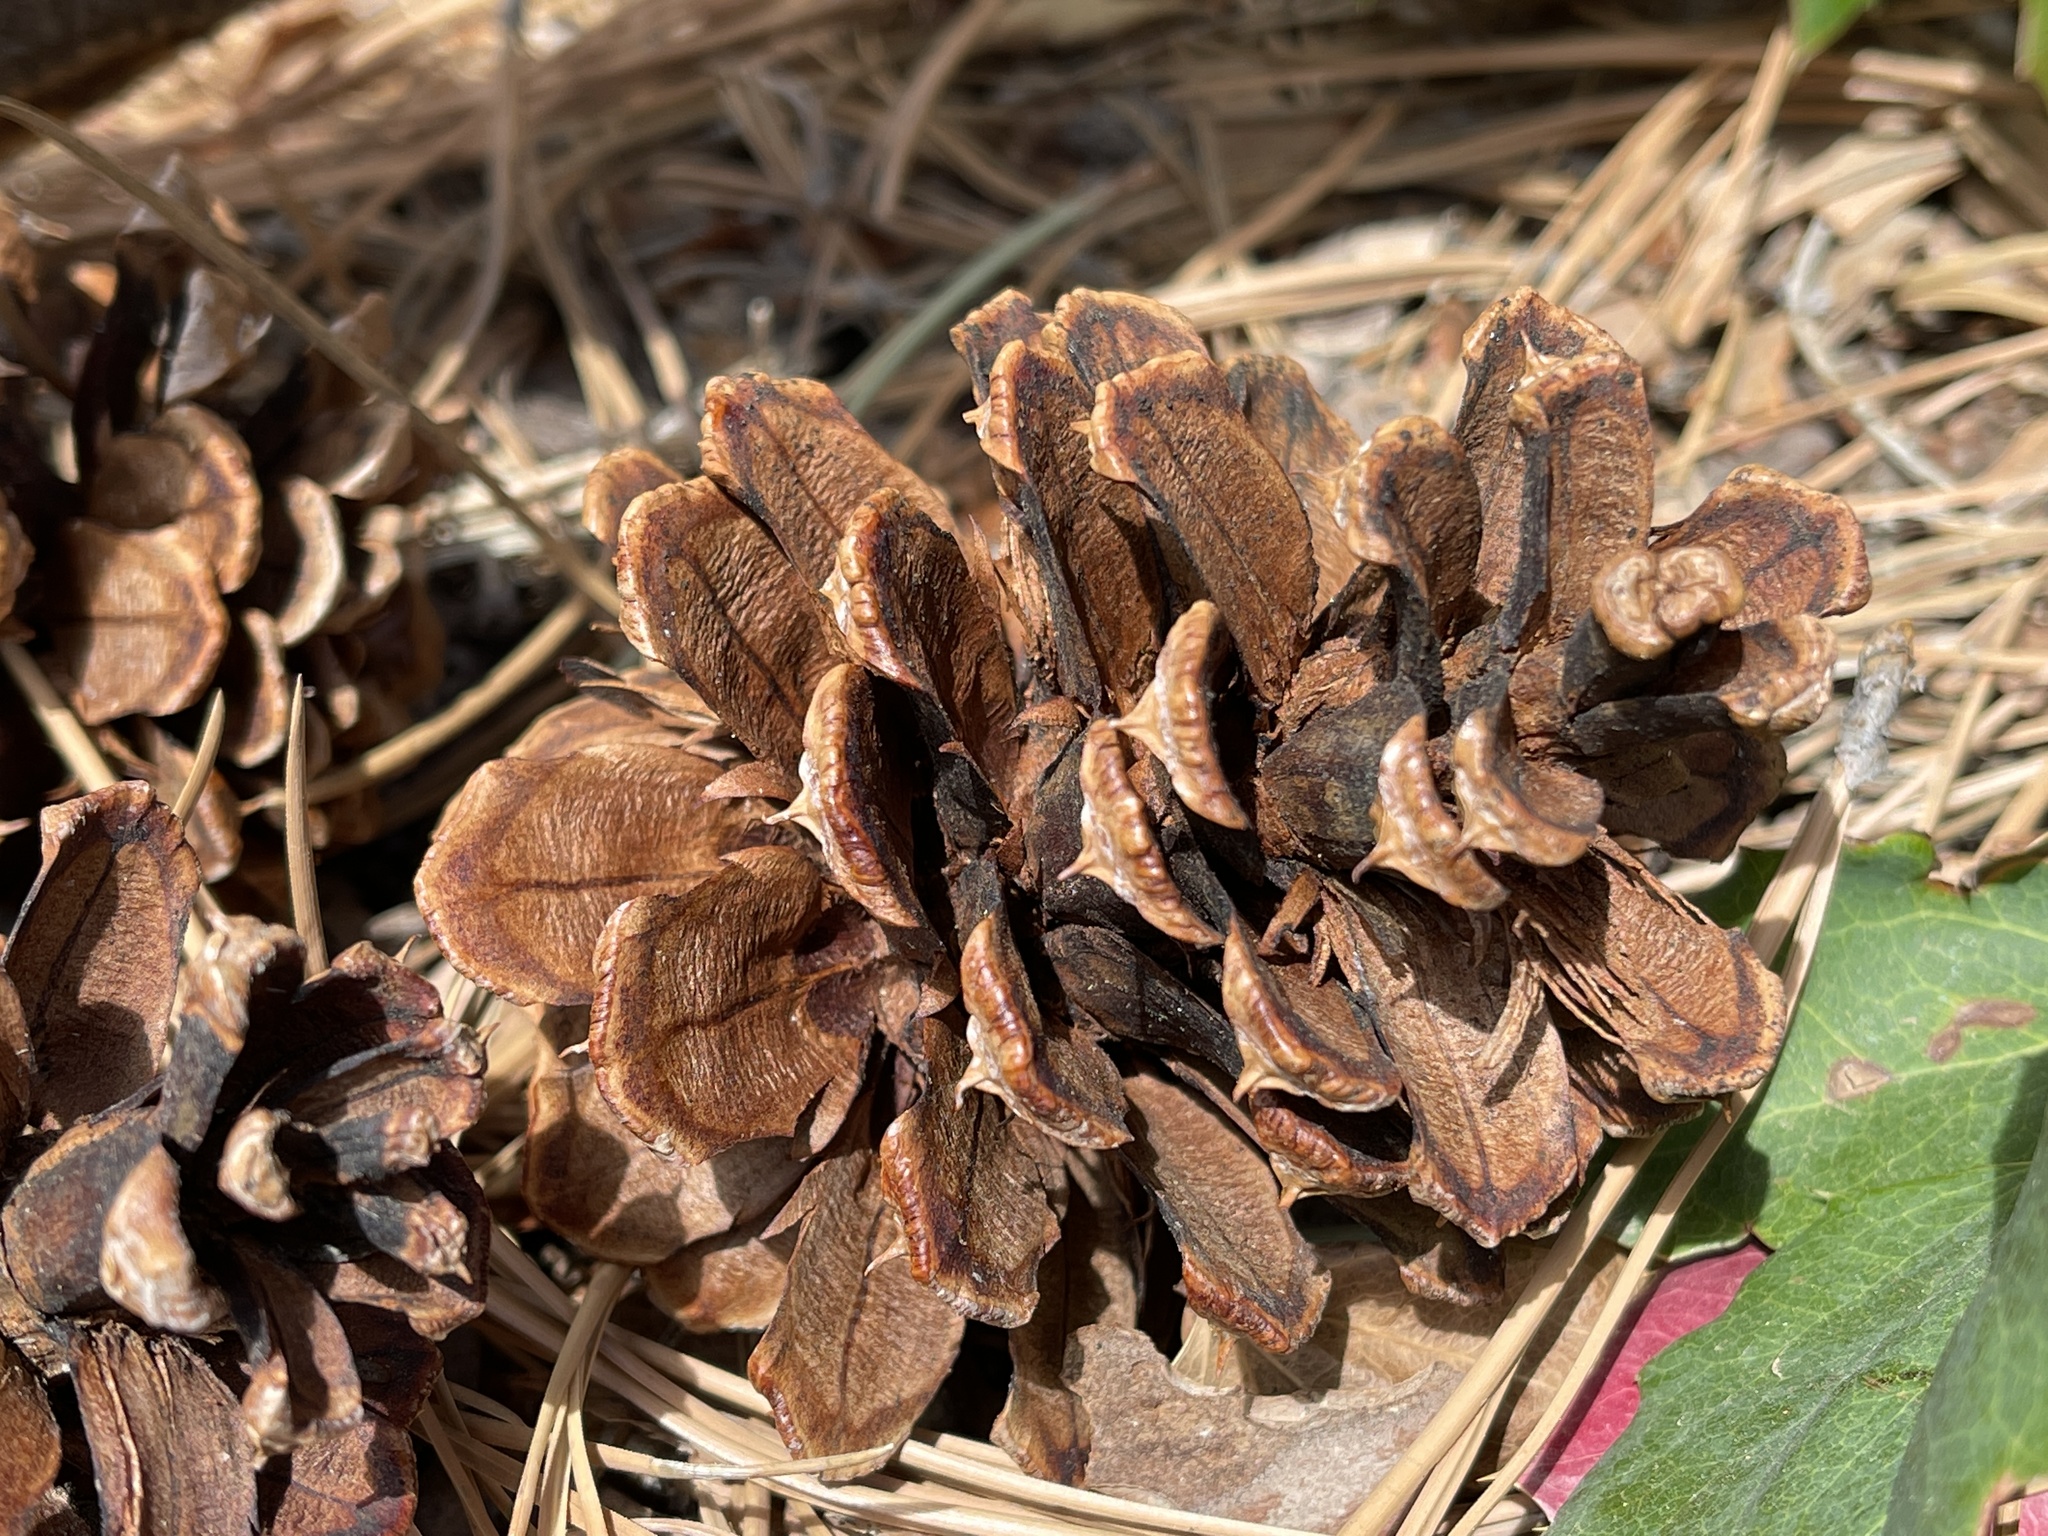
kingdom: Plantae
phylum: Tracheophyta
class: Pinopsida
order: Pinales
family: Pinaceae
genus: Pinus
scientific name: Pinus ponderosa
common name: Western yellow-pine
